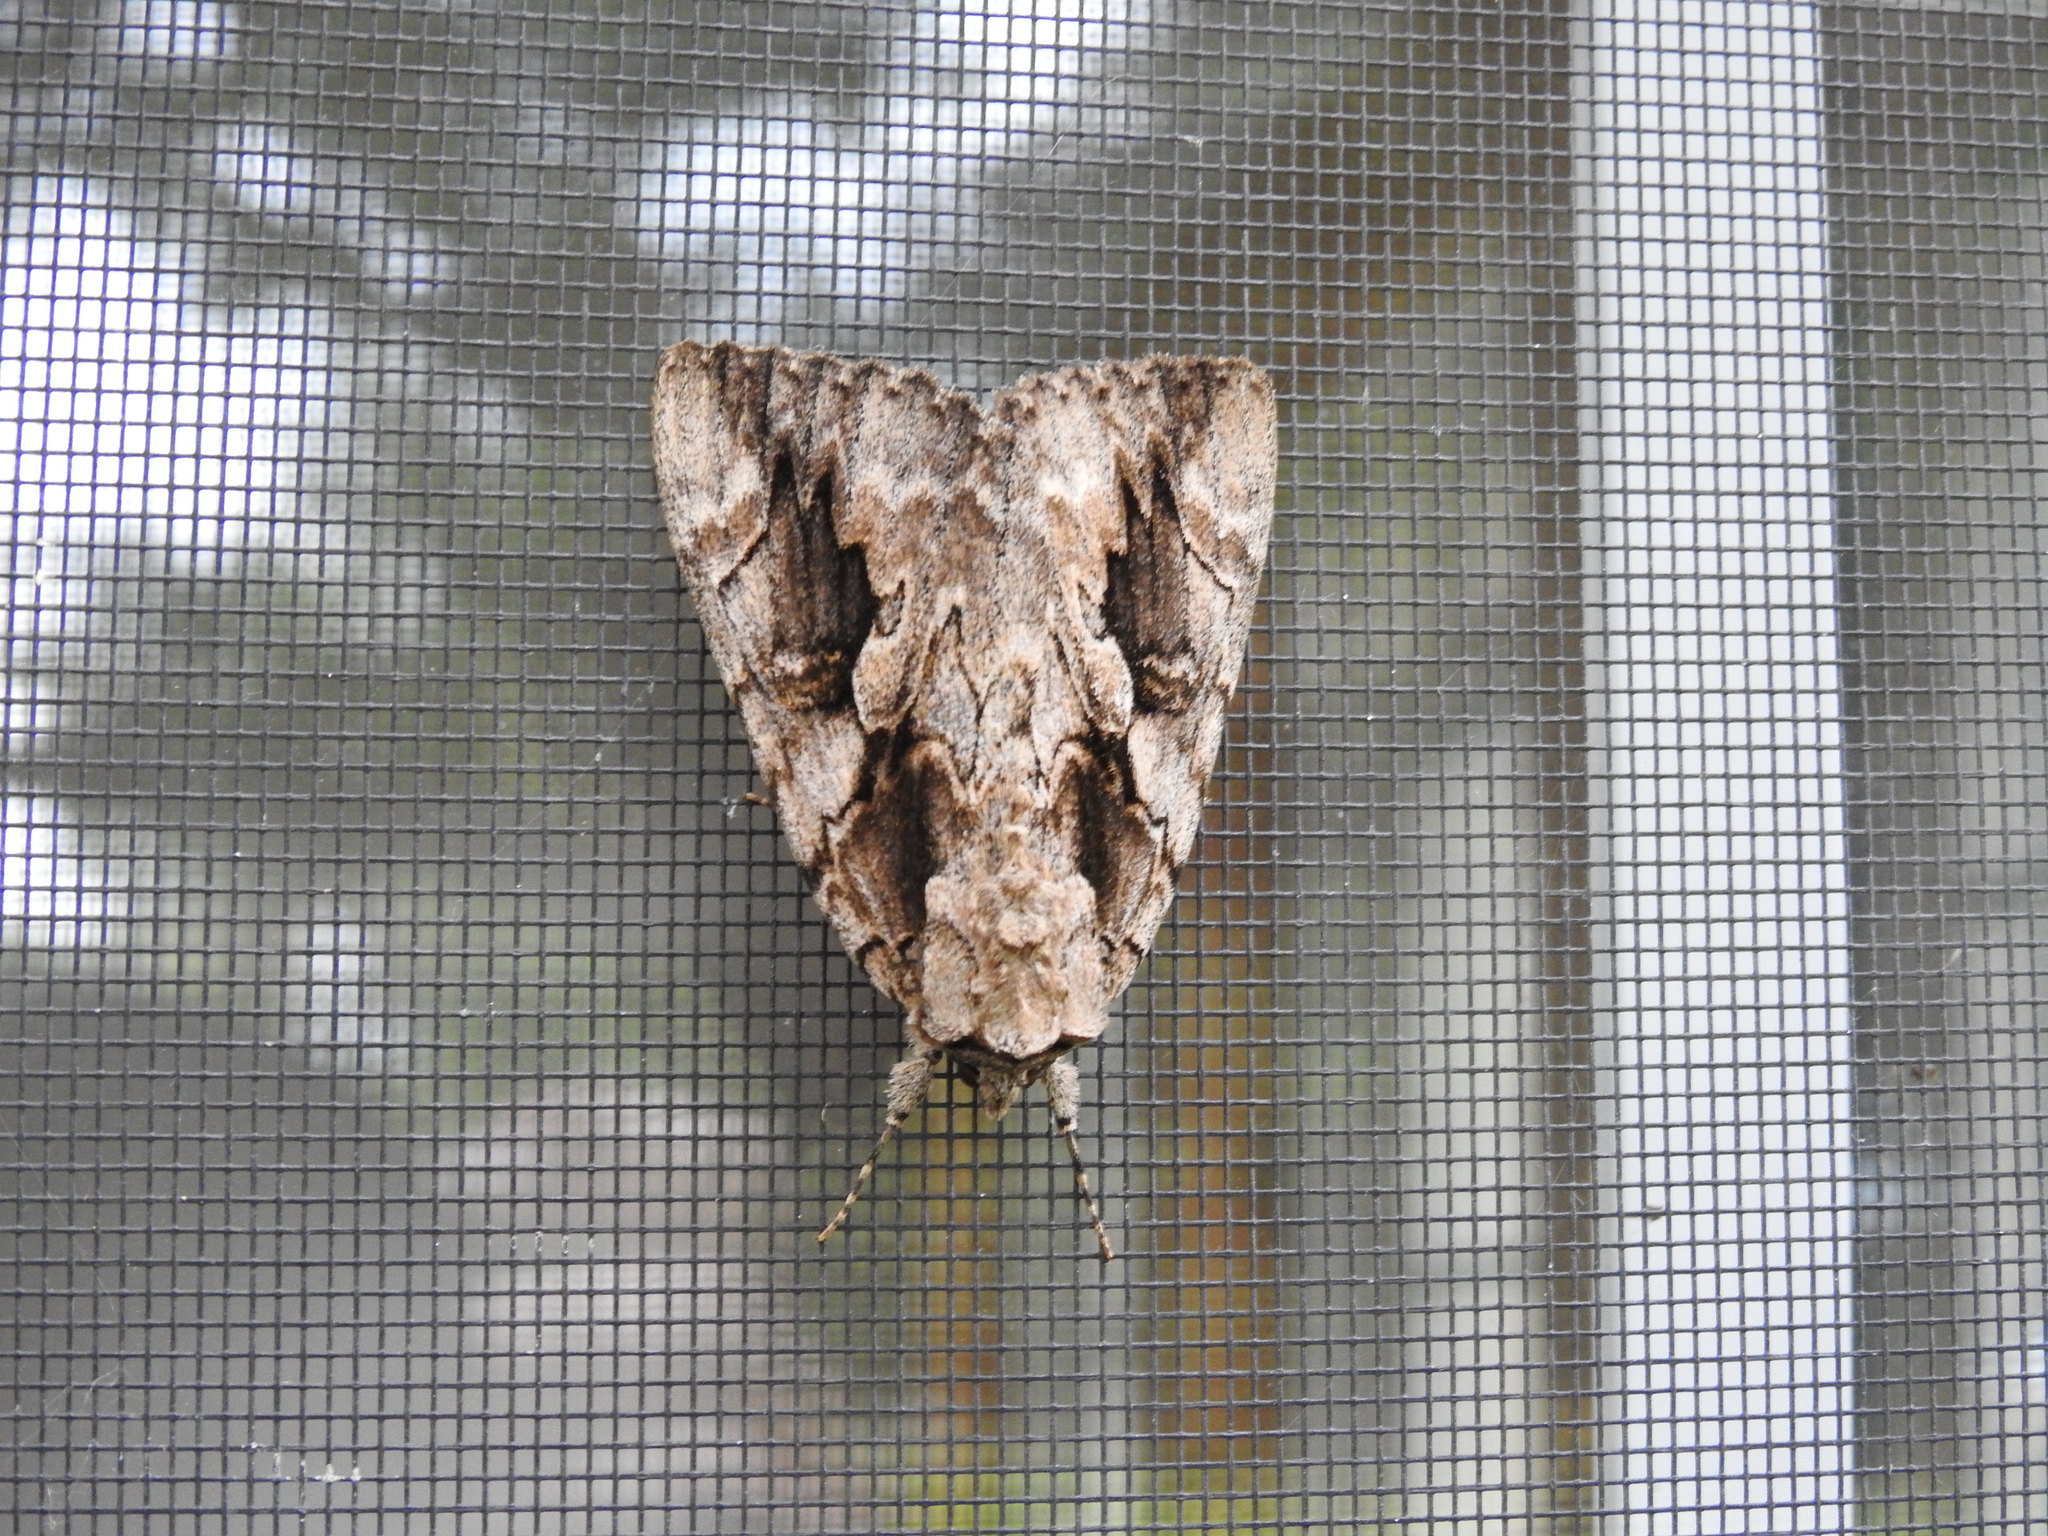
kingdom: Animalia
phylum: Arthropoda
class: Insecta
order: Lepidoptera
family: Erebidae
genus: Catocala
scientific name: Catocala amatrix
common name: Sweetheart underwing
